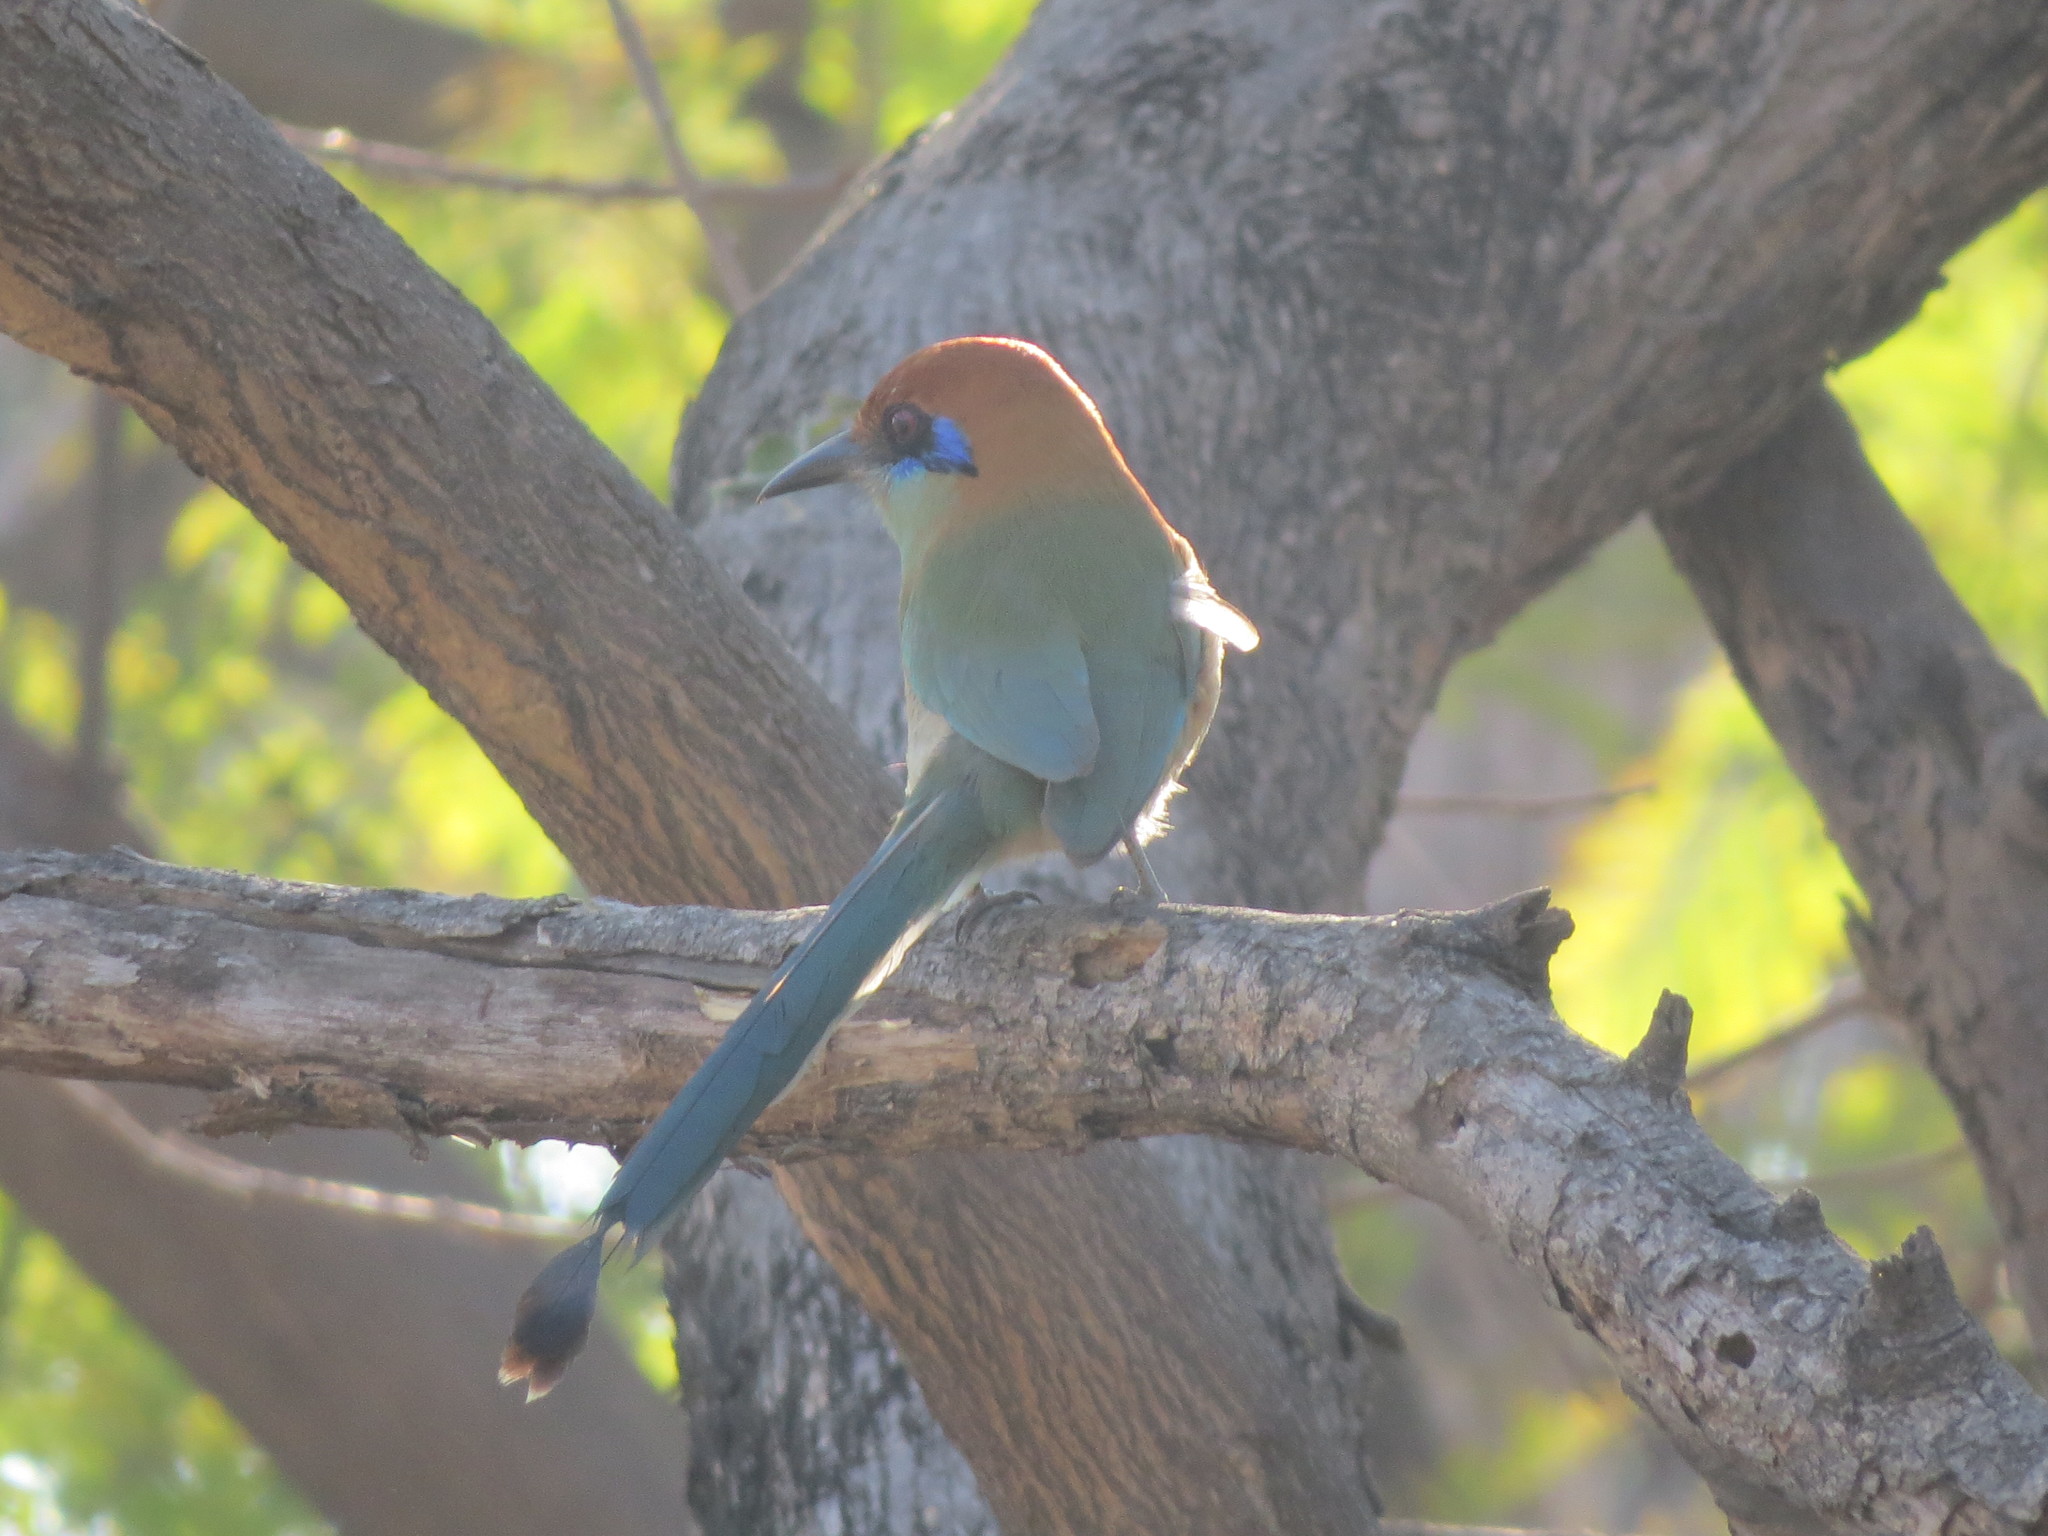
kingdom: Animalia
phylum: Chordata
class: Aves
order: Coraciiformes
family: Momotidae
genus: Momotus
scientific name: Momotus mexicanus
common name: Russet-crowned motmot
